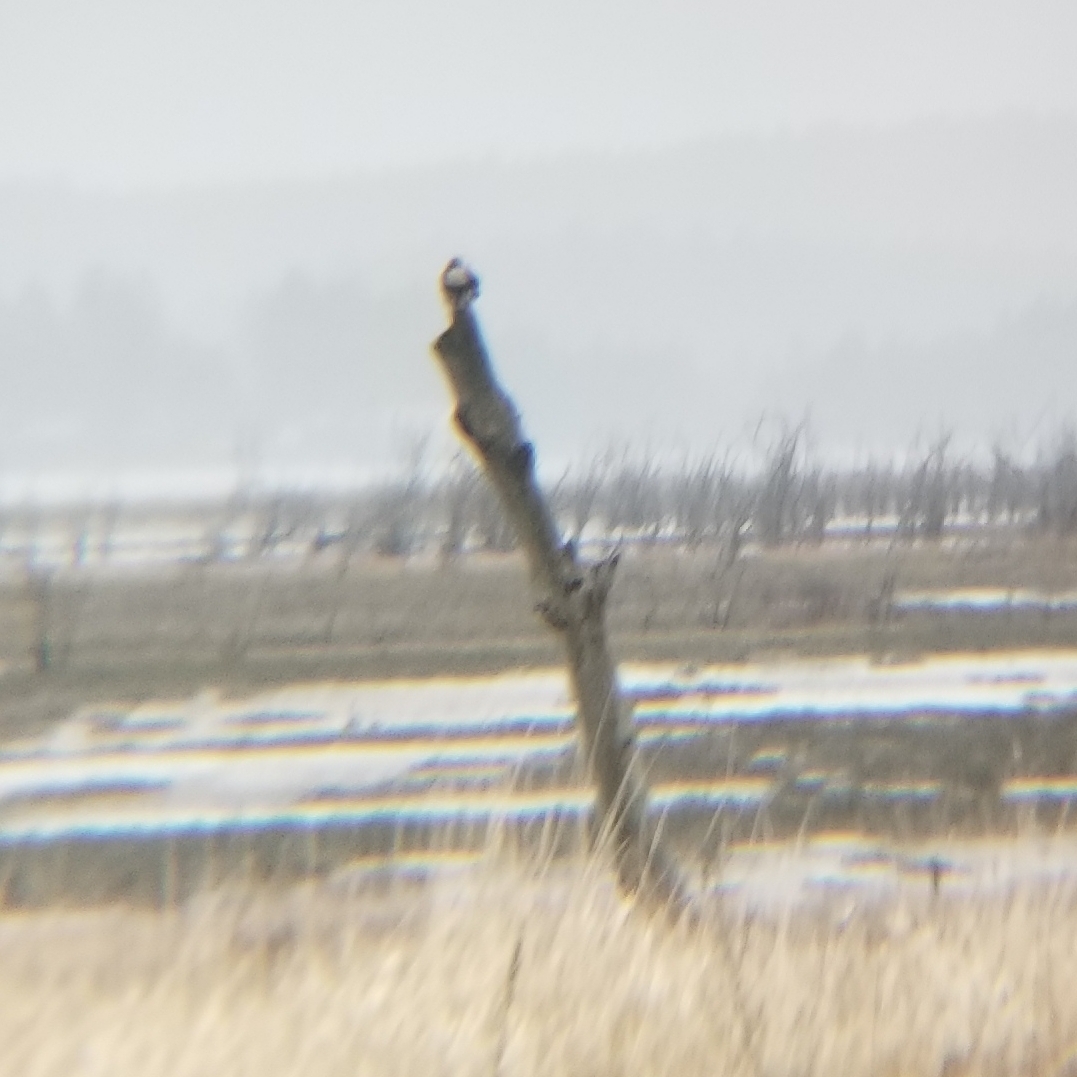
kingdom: Animalia
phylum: Chordata
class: Aves
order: Accipitriformes
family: Accipitridae
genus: Buteo
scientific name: Buteo jamaicensis
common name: Red-tailed hawk
